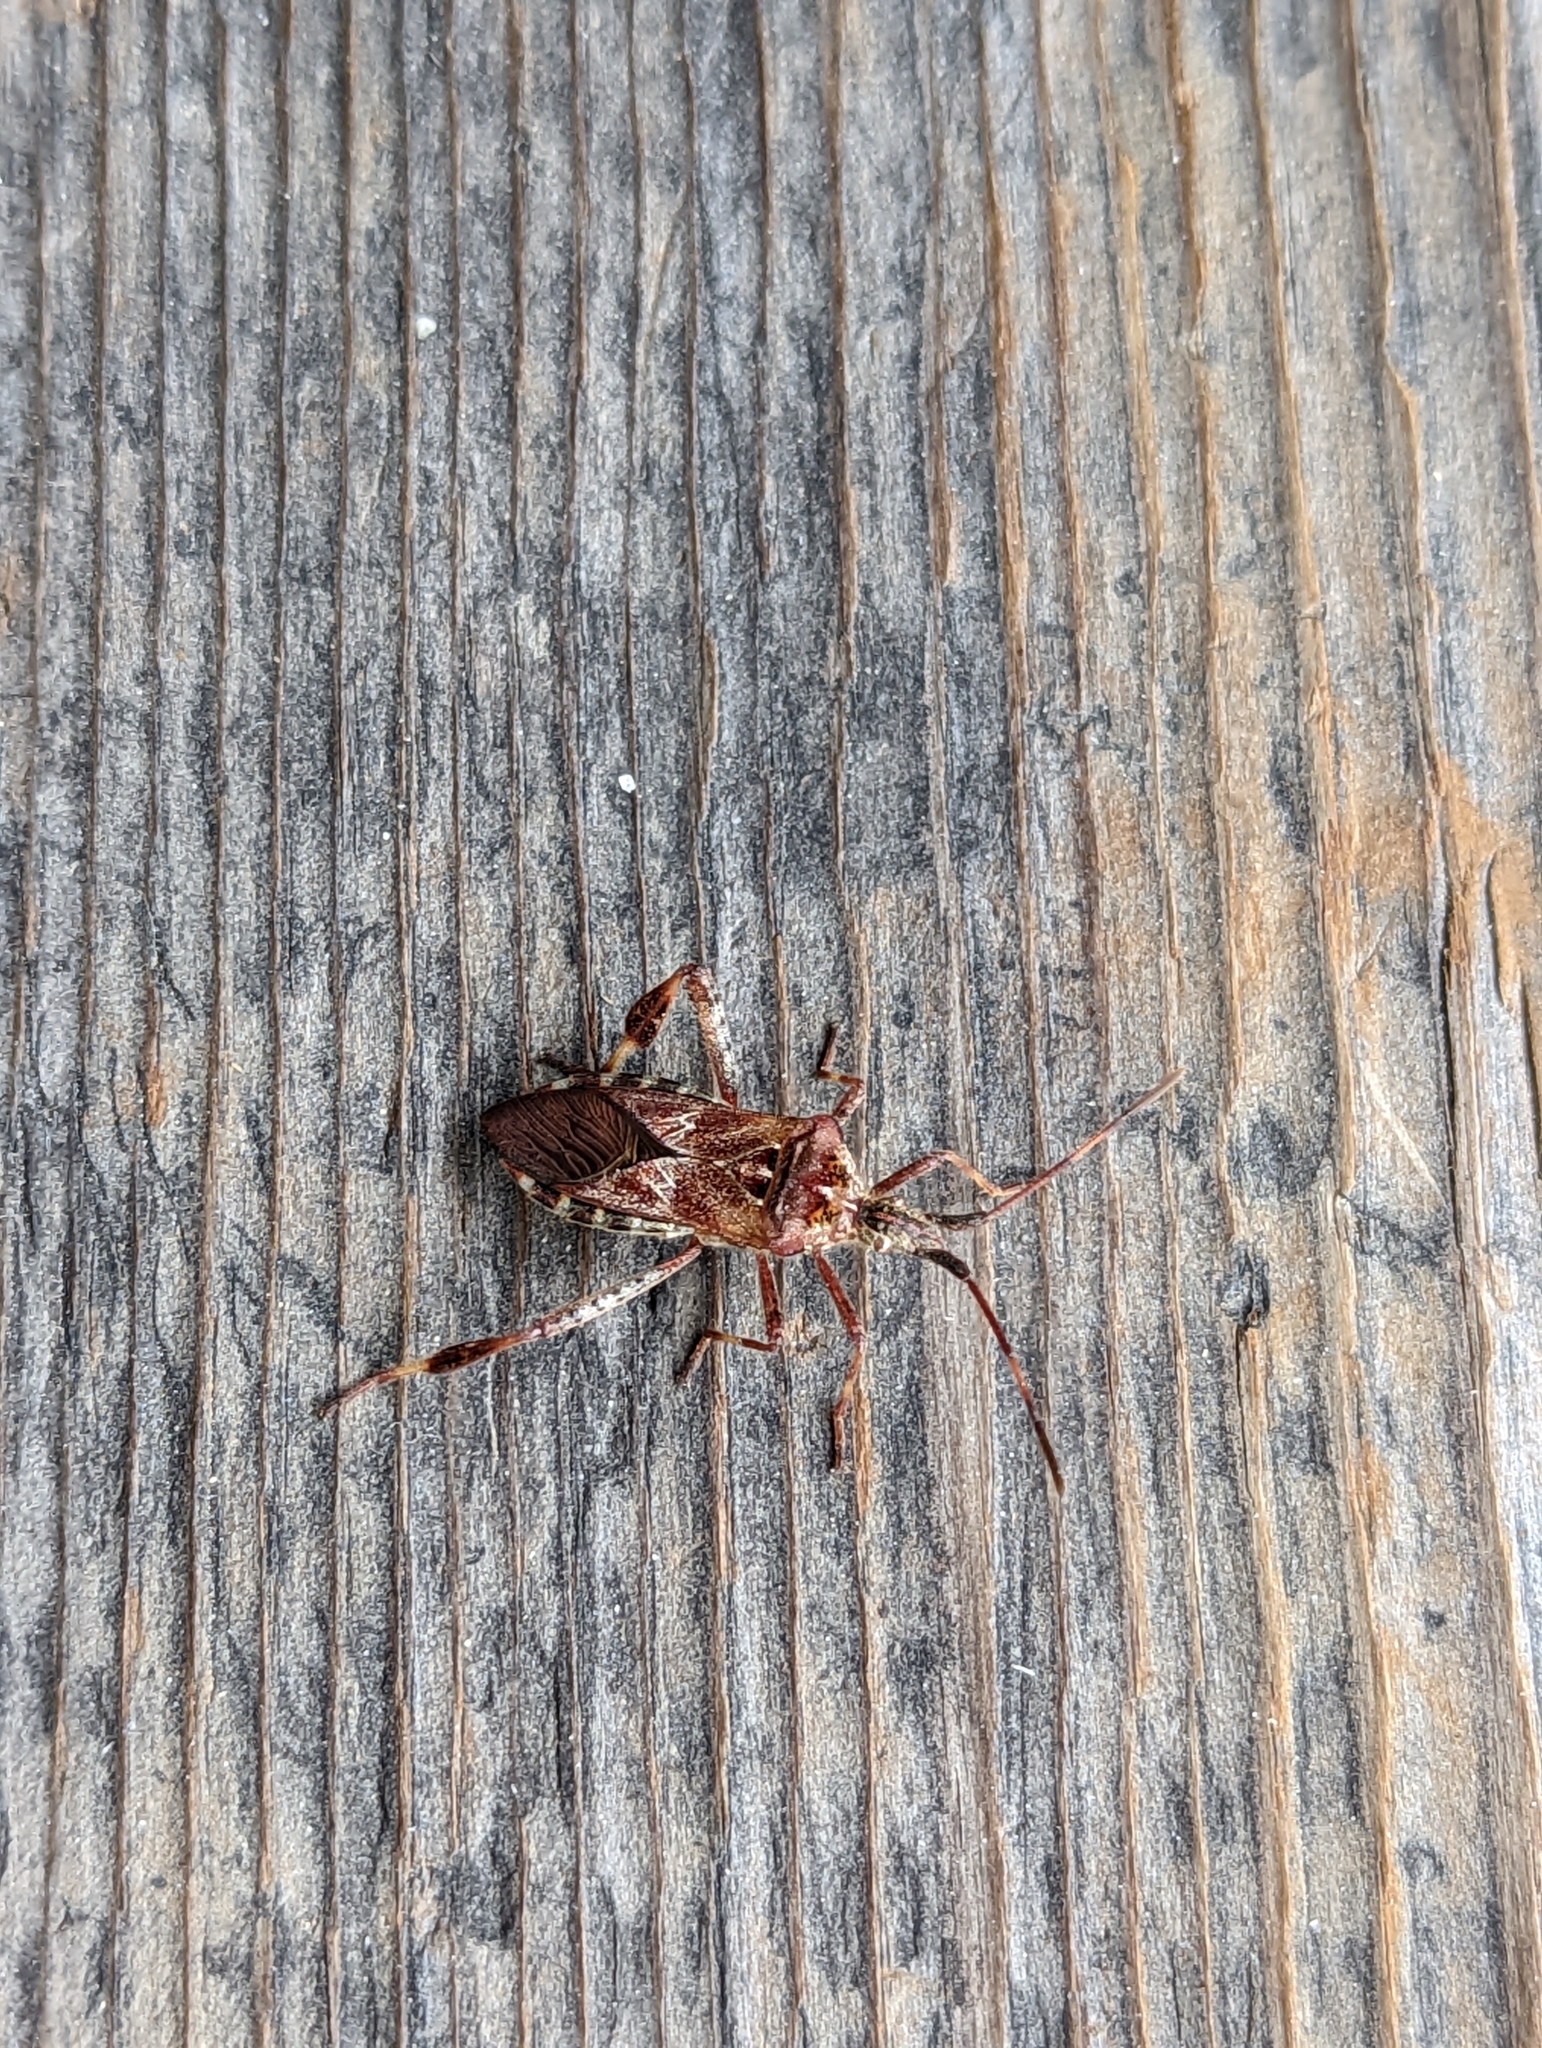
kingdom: Animalia
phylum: Arthropoda
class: Insecta
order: Hemiptera
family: Coreidae
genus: Leptoglossus
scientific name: Leptoglossus occidentalis
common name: Western conifer-seed bug
